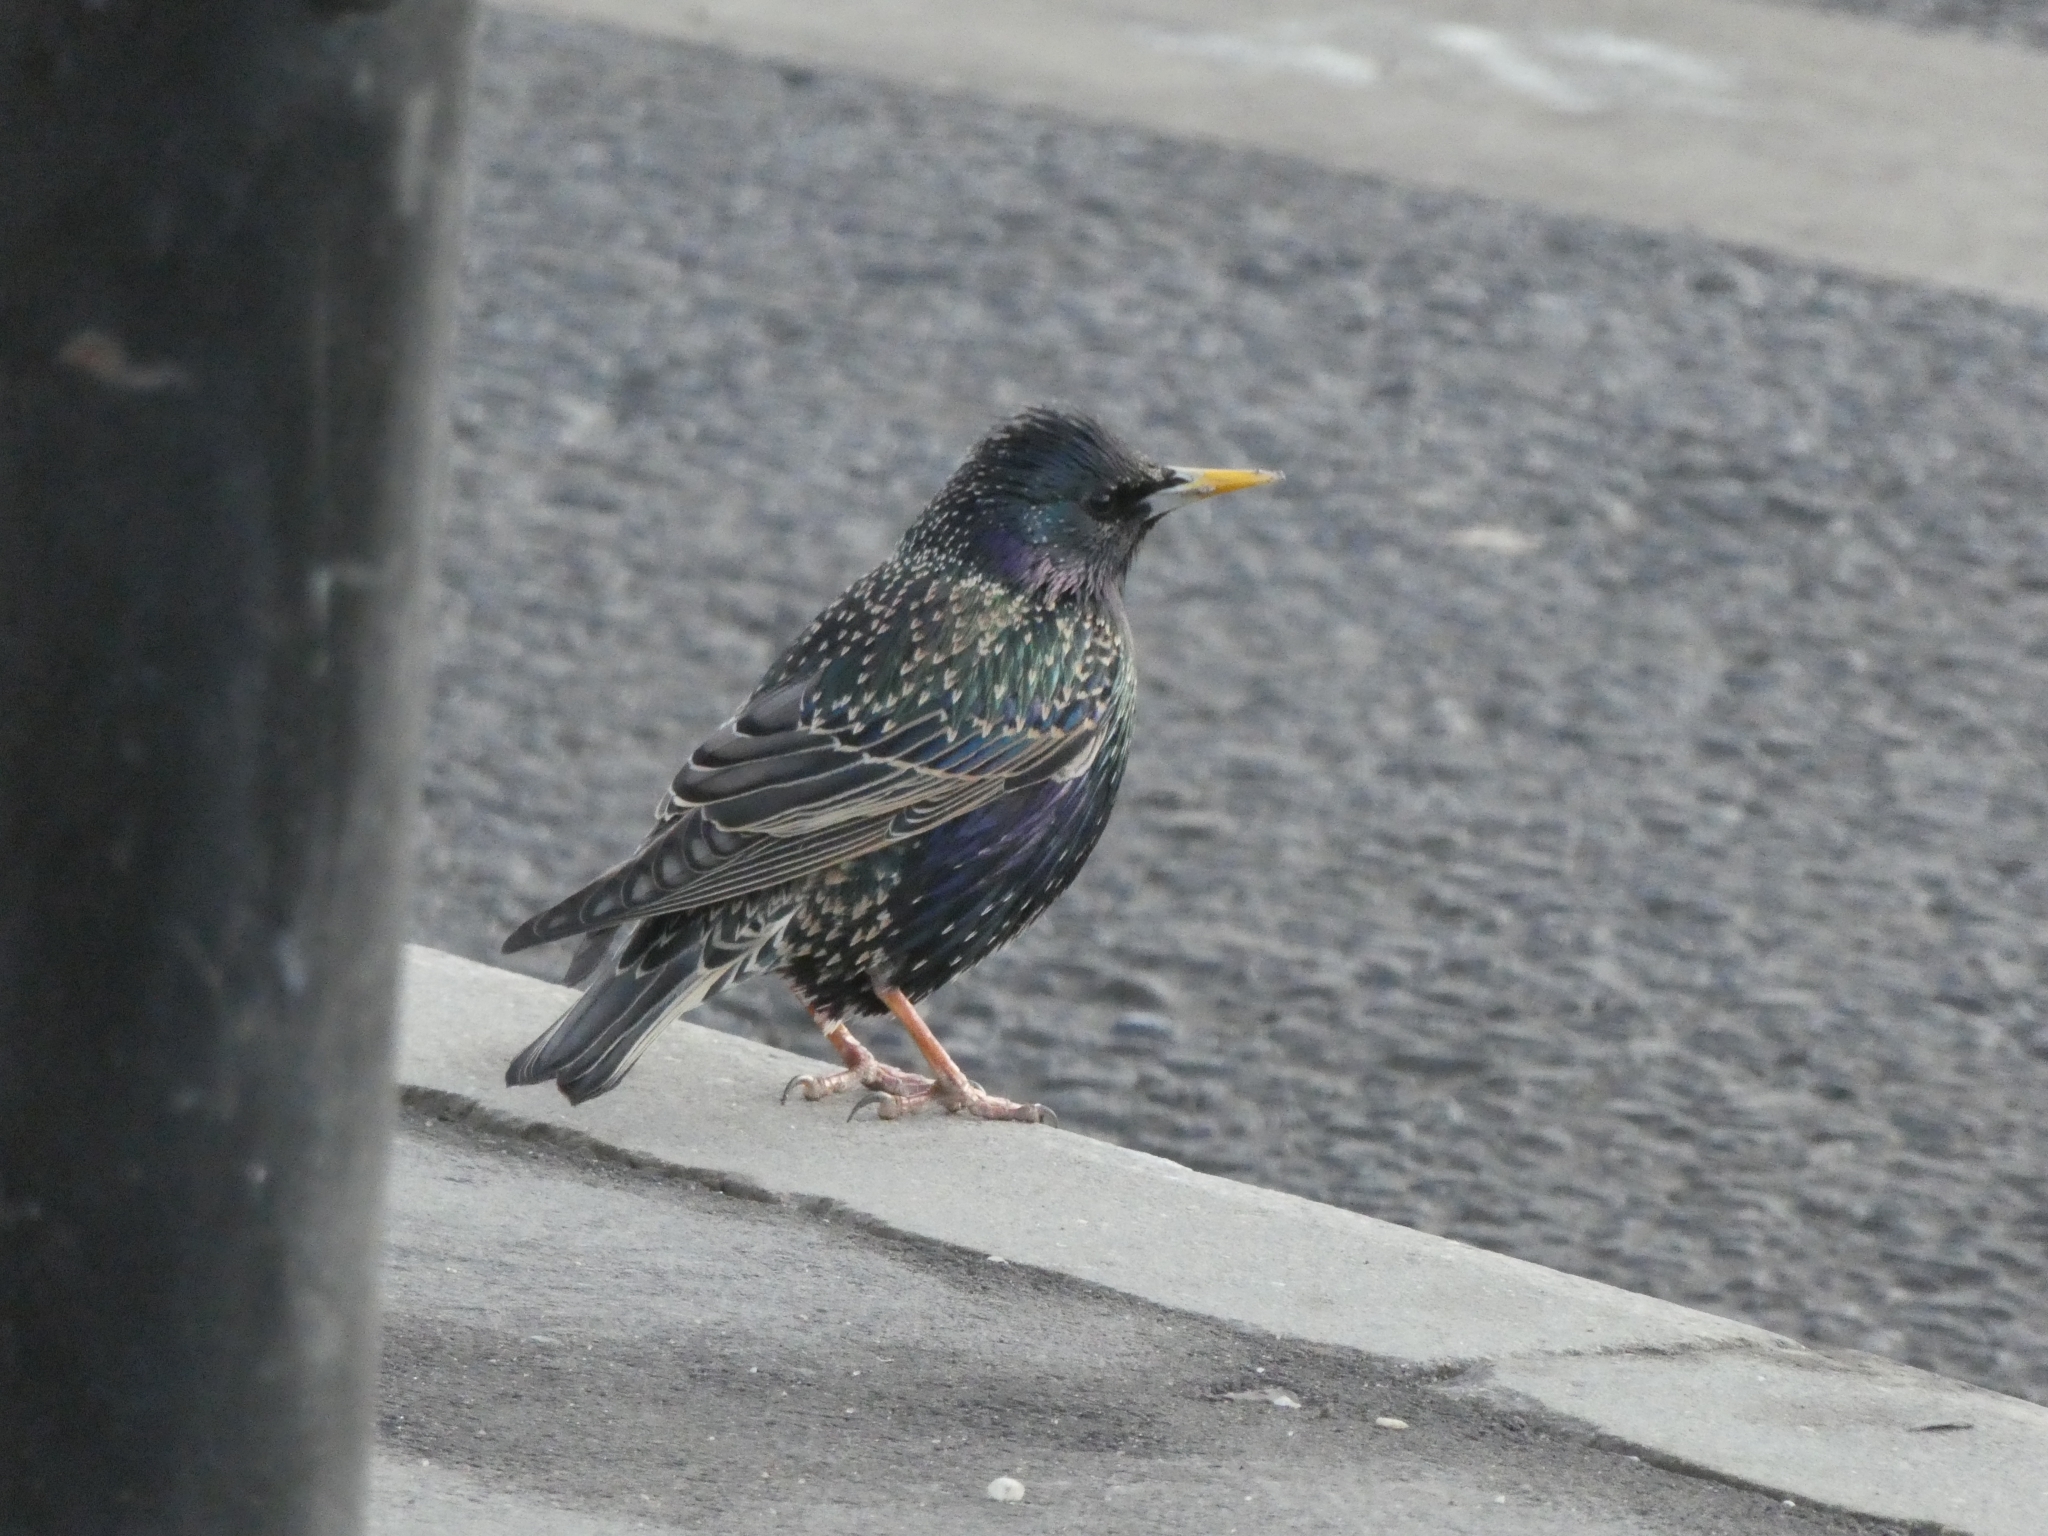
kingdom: Animalia
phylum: Chordata
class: Aves
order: Passeriformes
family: Sturnidae
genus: Sturnus
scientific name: Sturnus vulgaris
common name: Common starling
